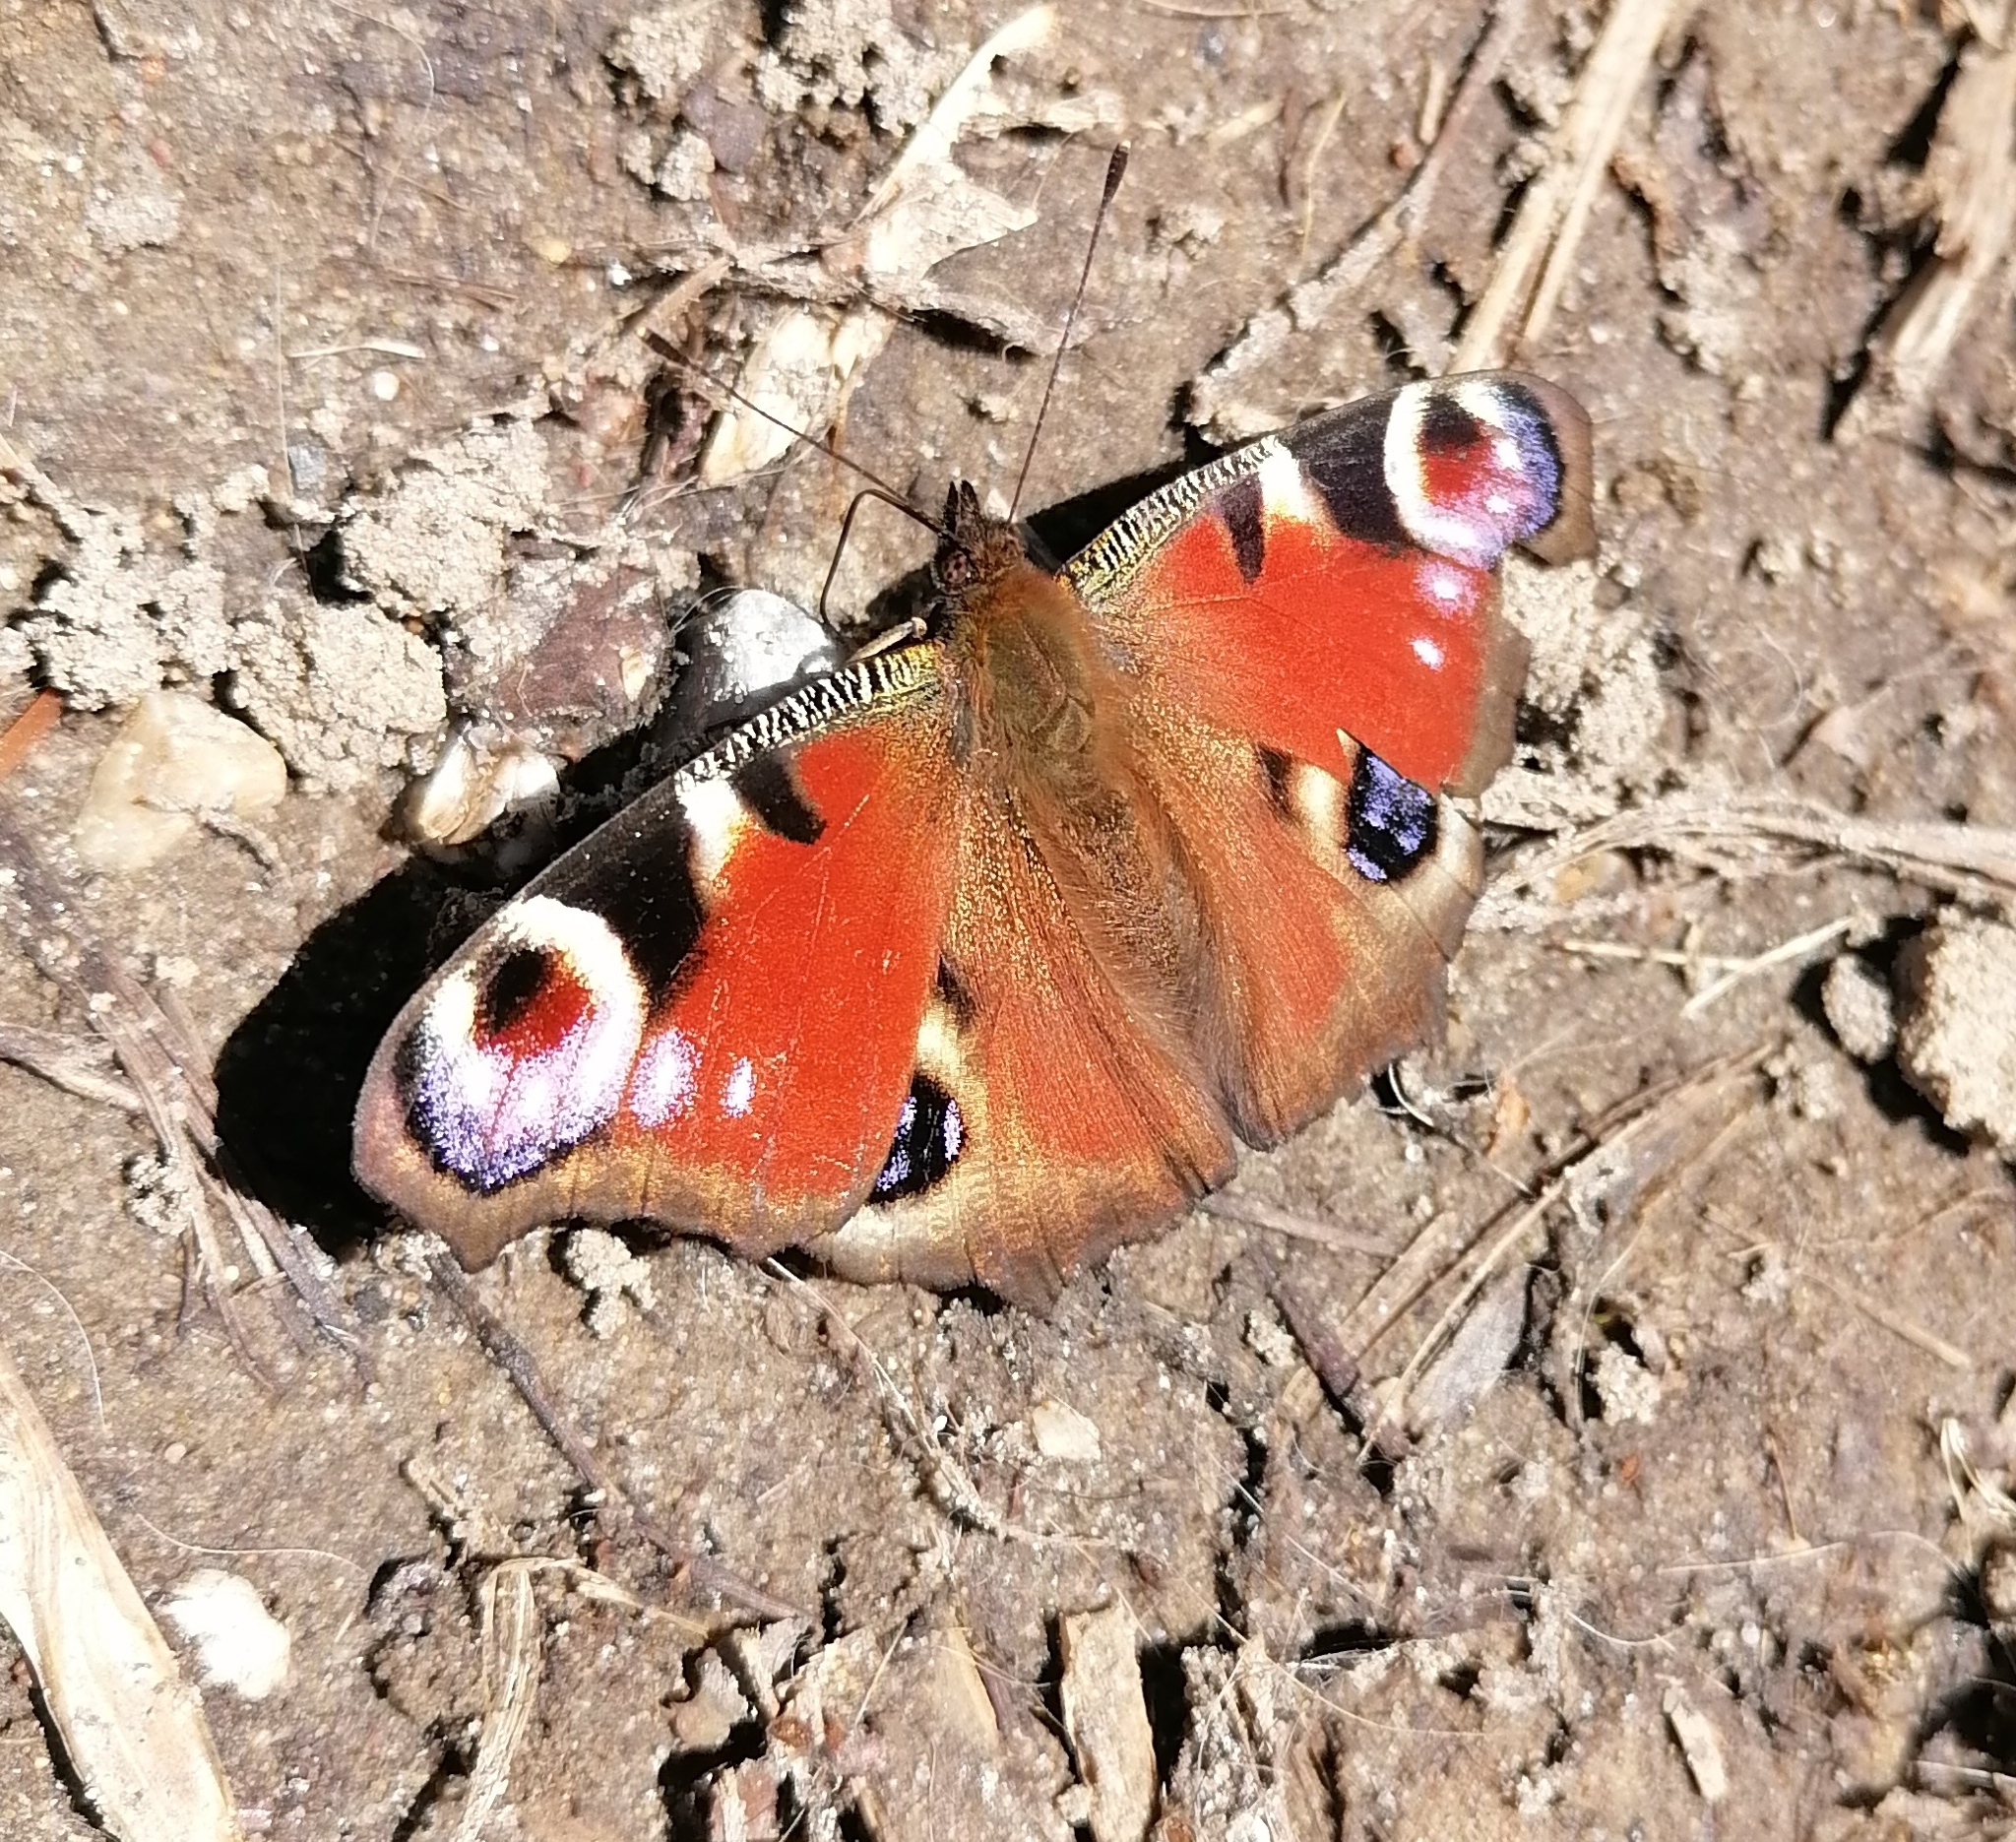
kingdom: Animalia
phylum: Arthropoda
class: Insecta
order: Lepidoptera
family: Nymphalidae
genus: Aglais
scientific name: Aglais io
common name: Peacock
